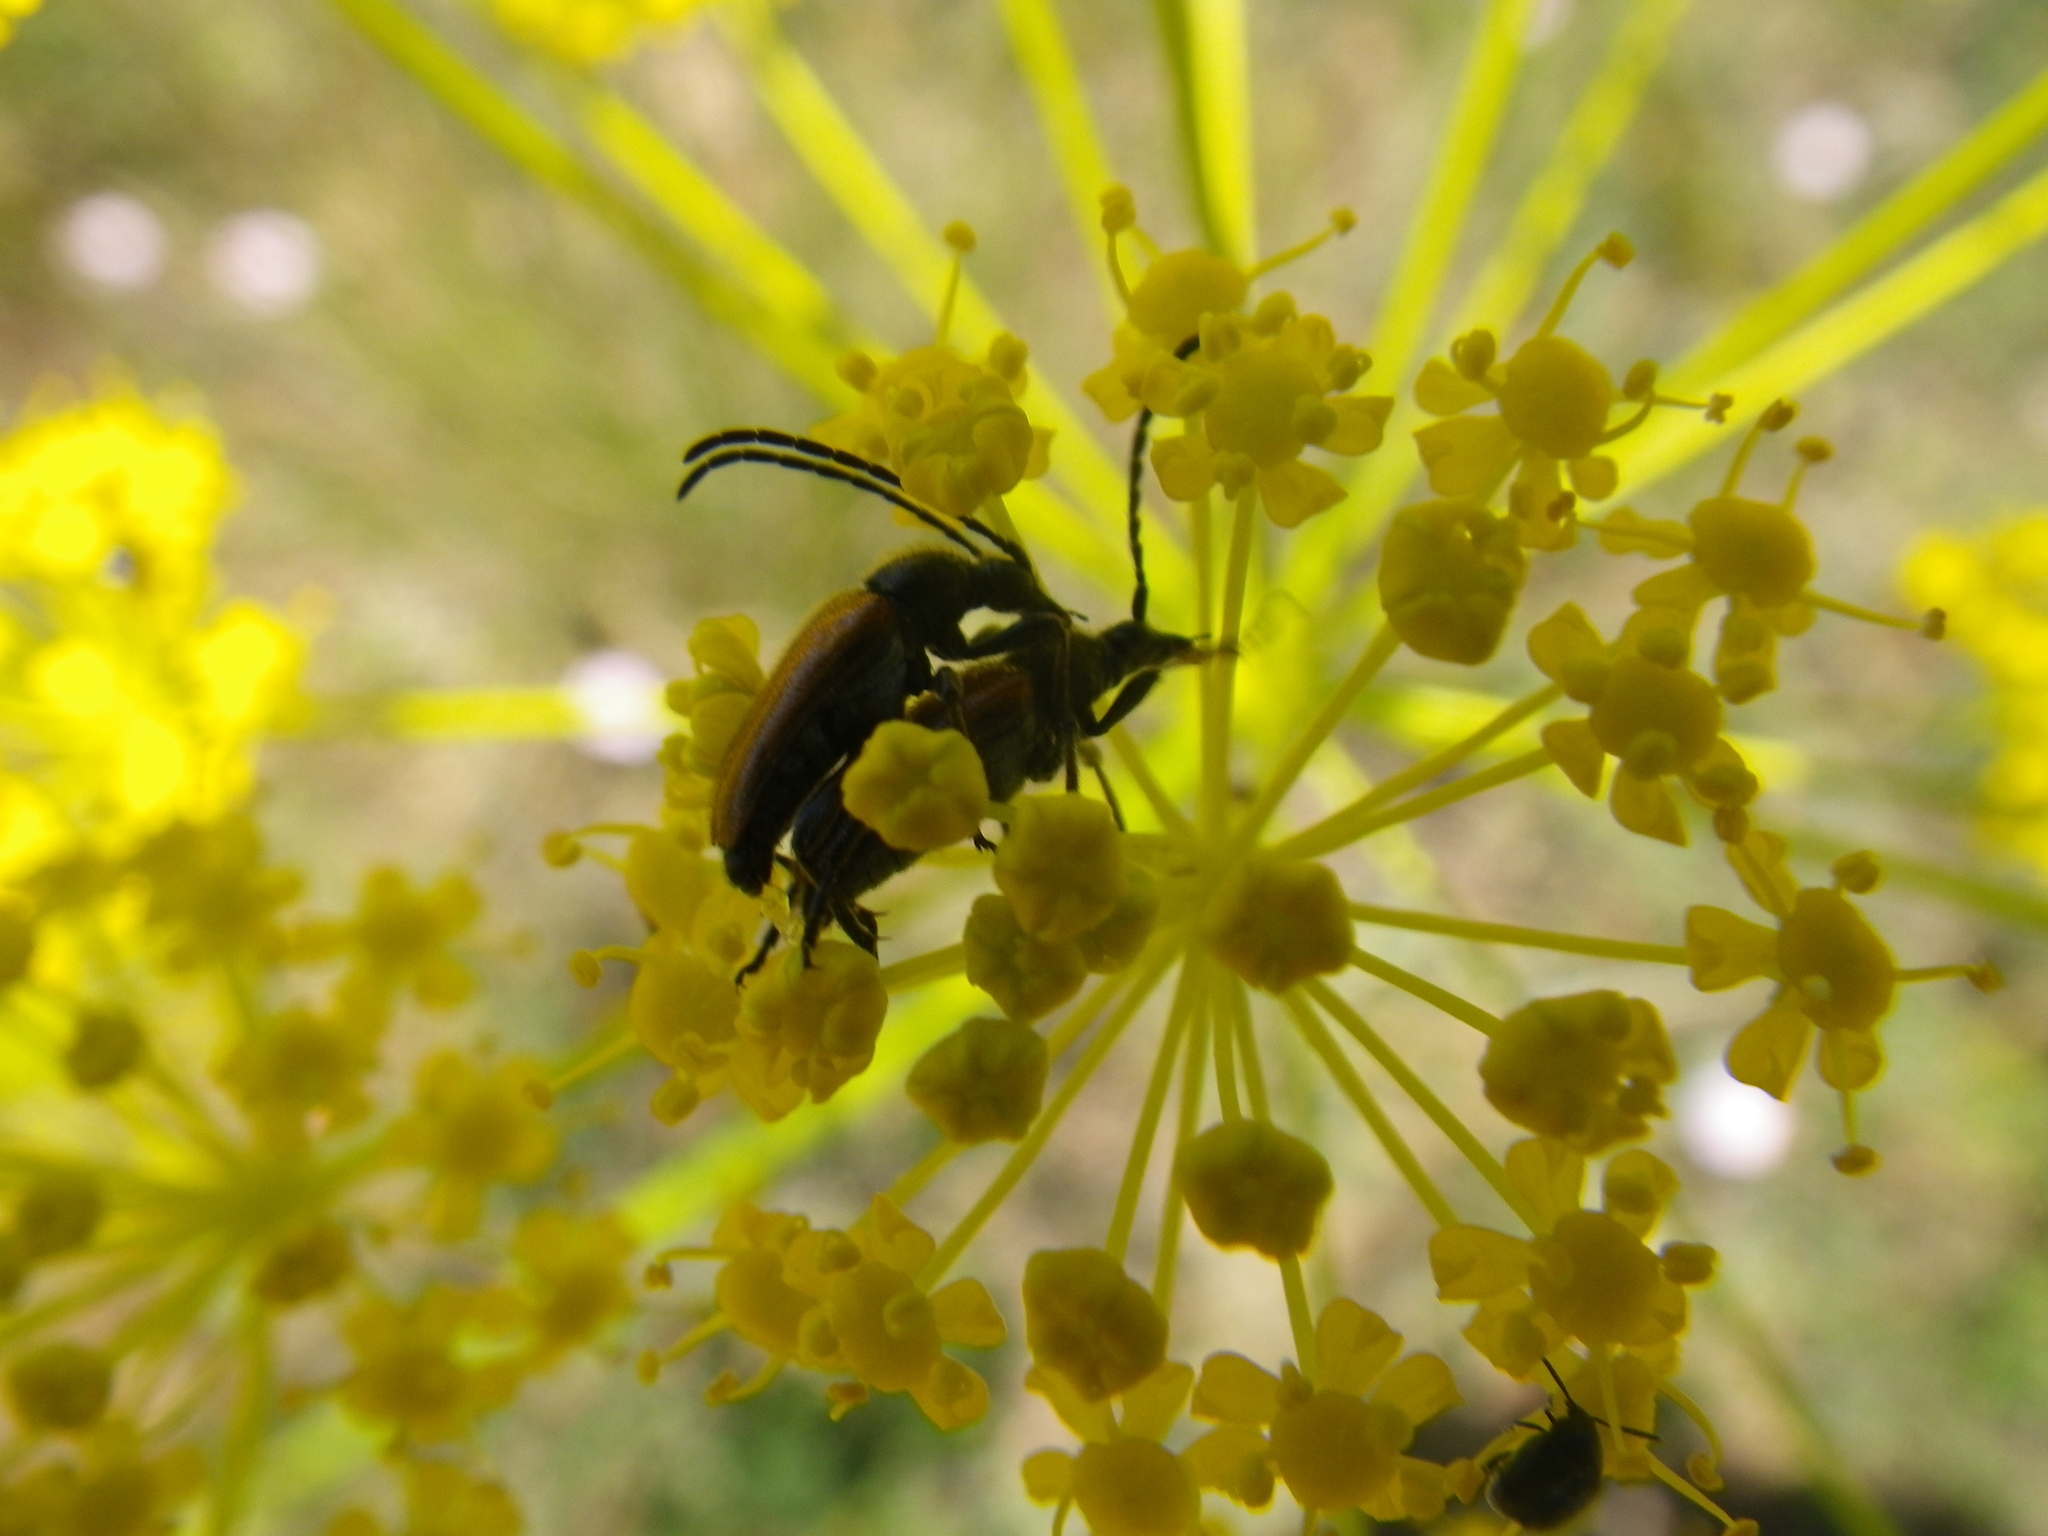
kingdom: Animalia
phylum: Arthropoda
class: Insecta
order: Coleoptera
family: Cerambycidae
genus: Pseudovadonia
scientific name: Pseudovadonia livida
